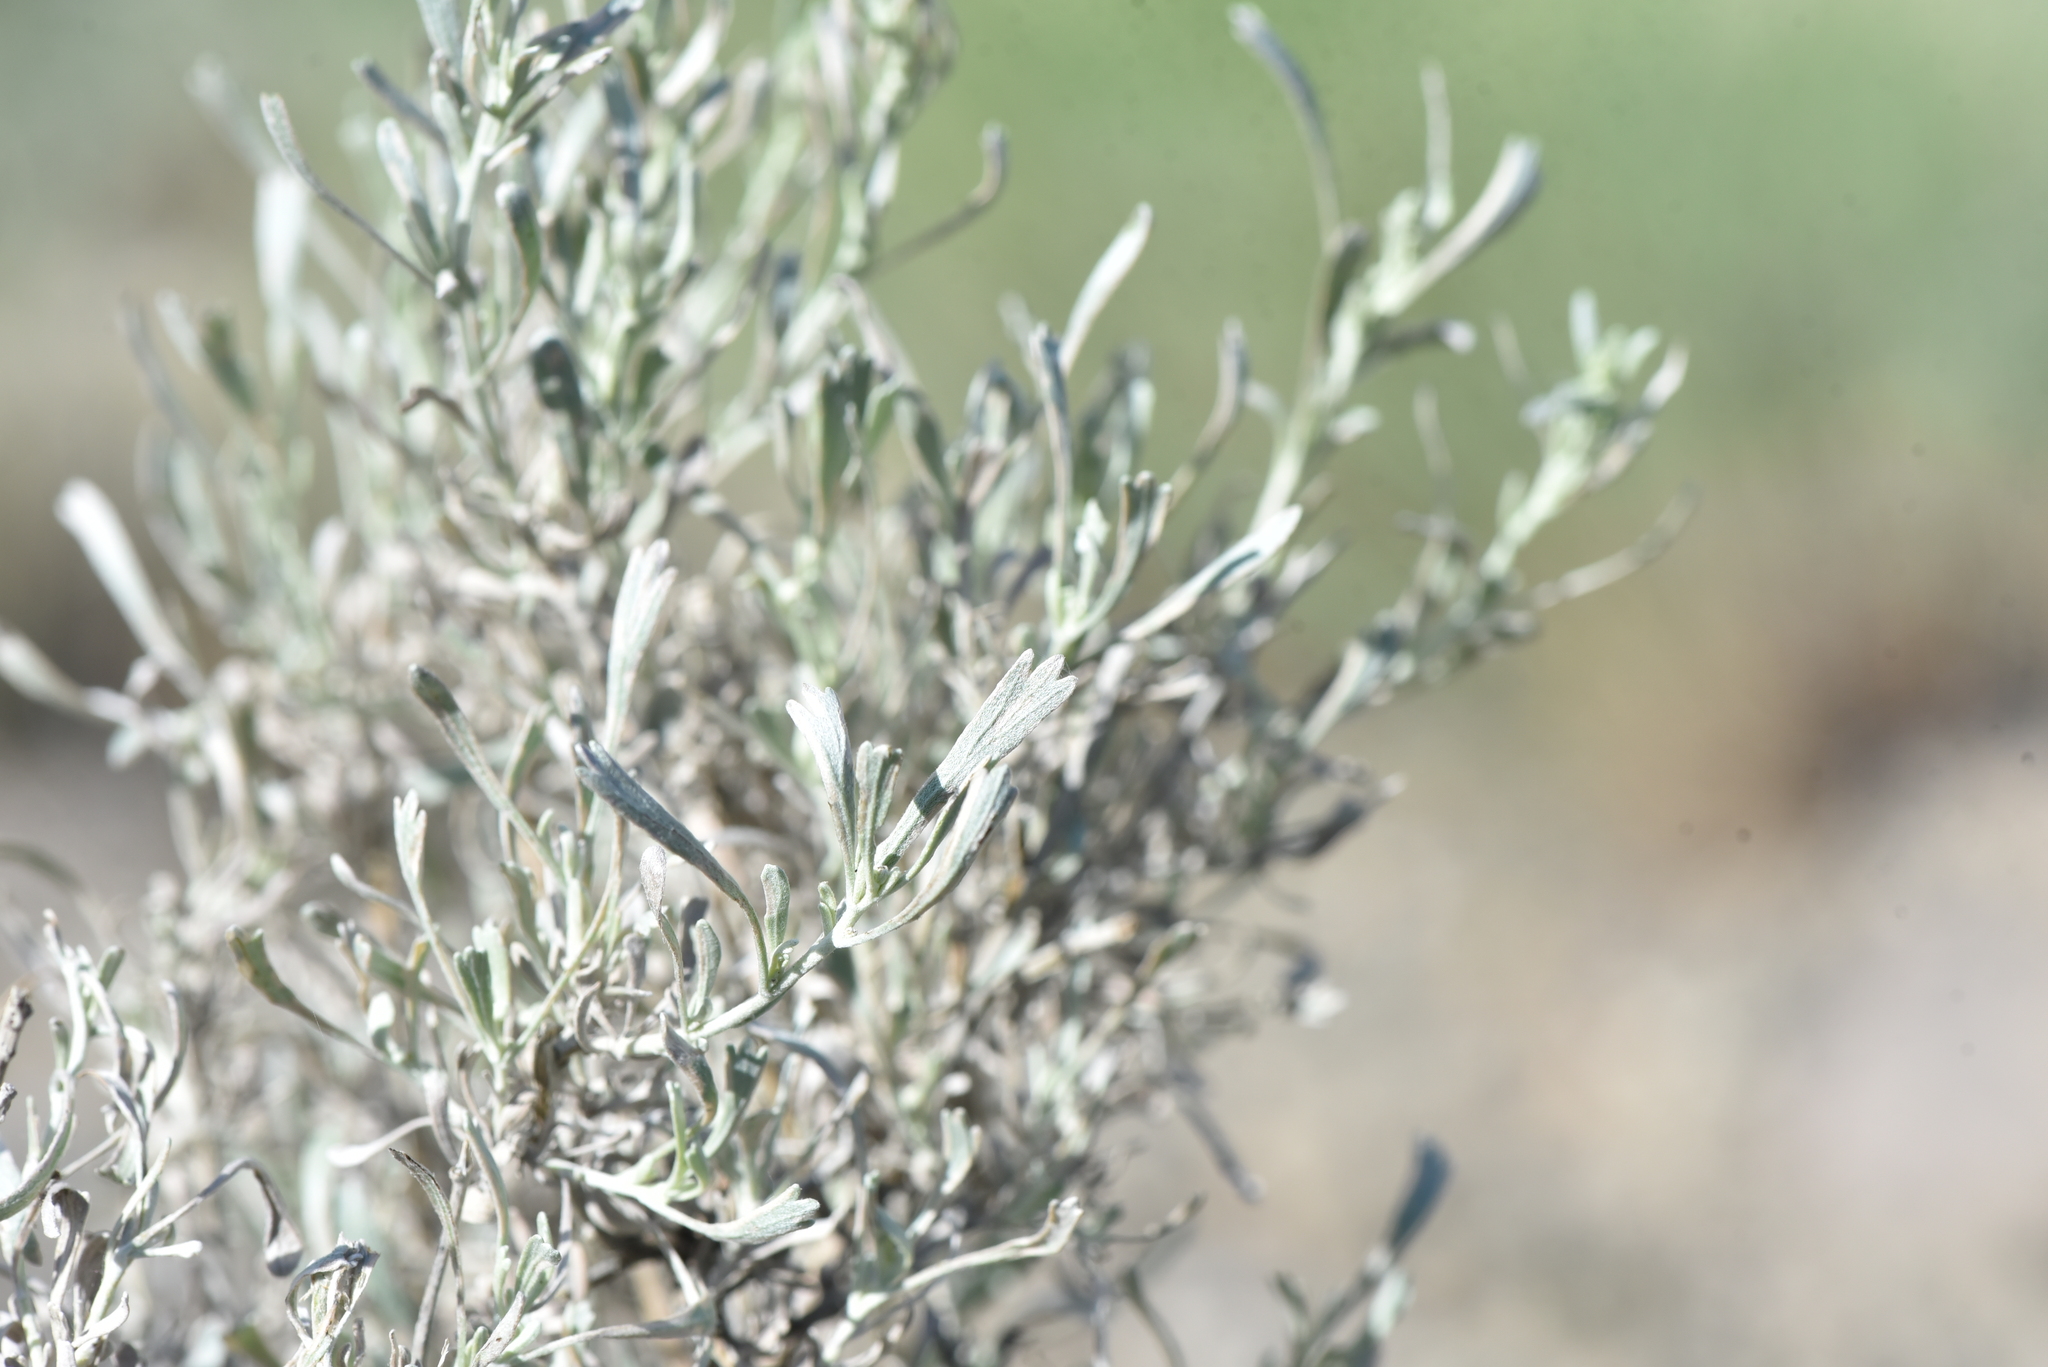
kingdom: Plantae
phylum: Tracheophyta
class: Magnoliopsida
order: Asterales
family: Asteraceae
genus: Artemisia
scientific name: Artemisia tridentata
